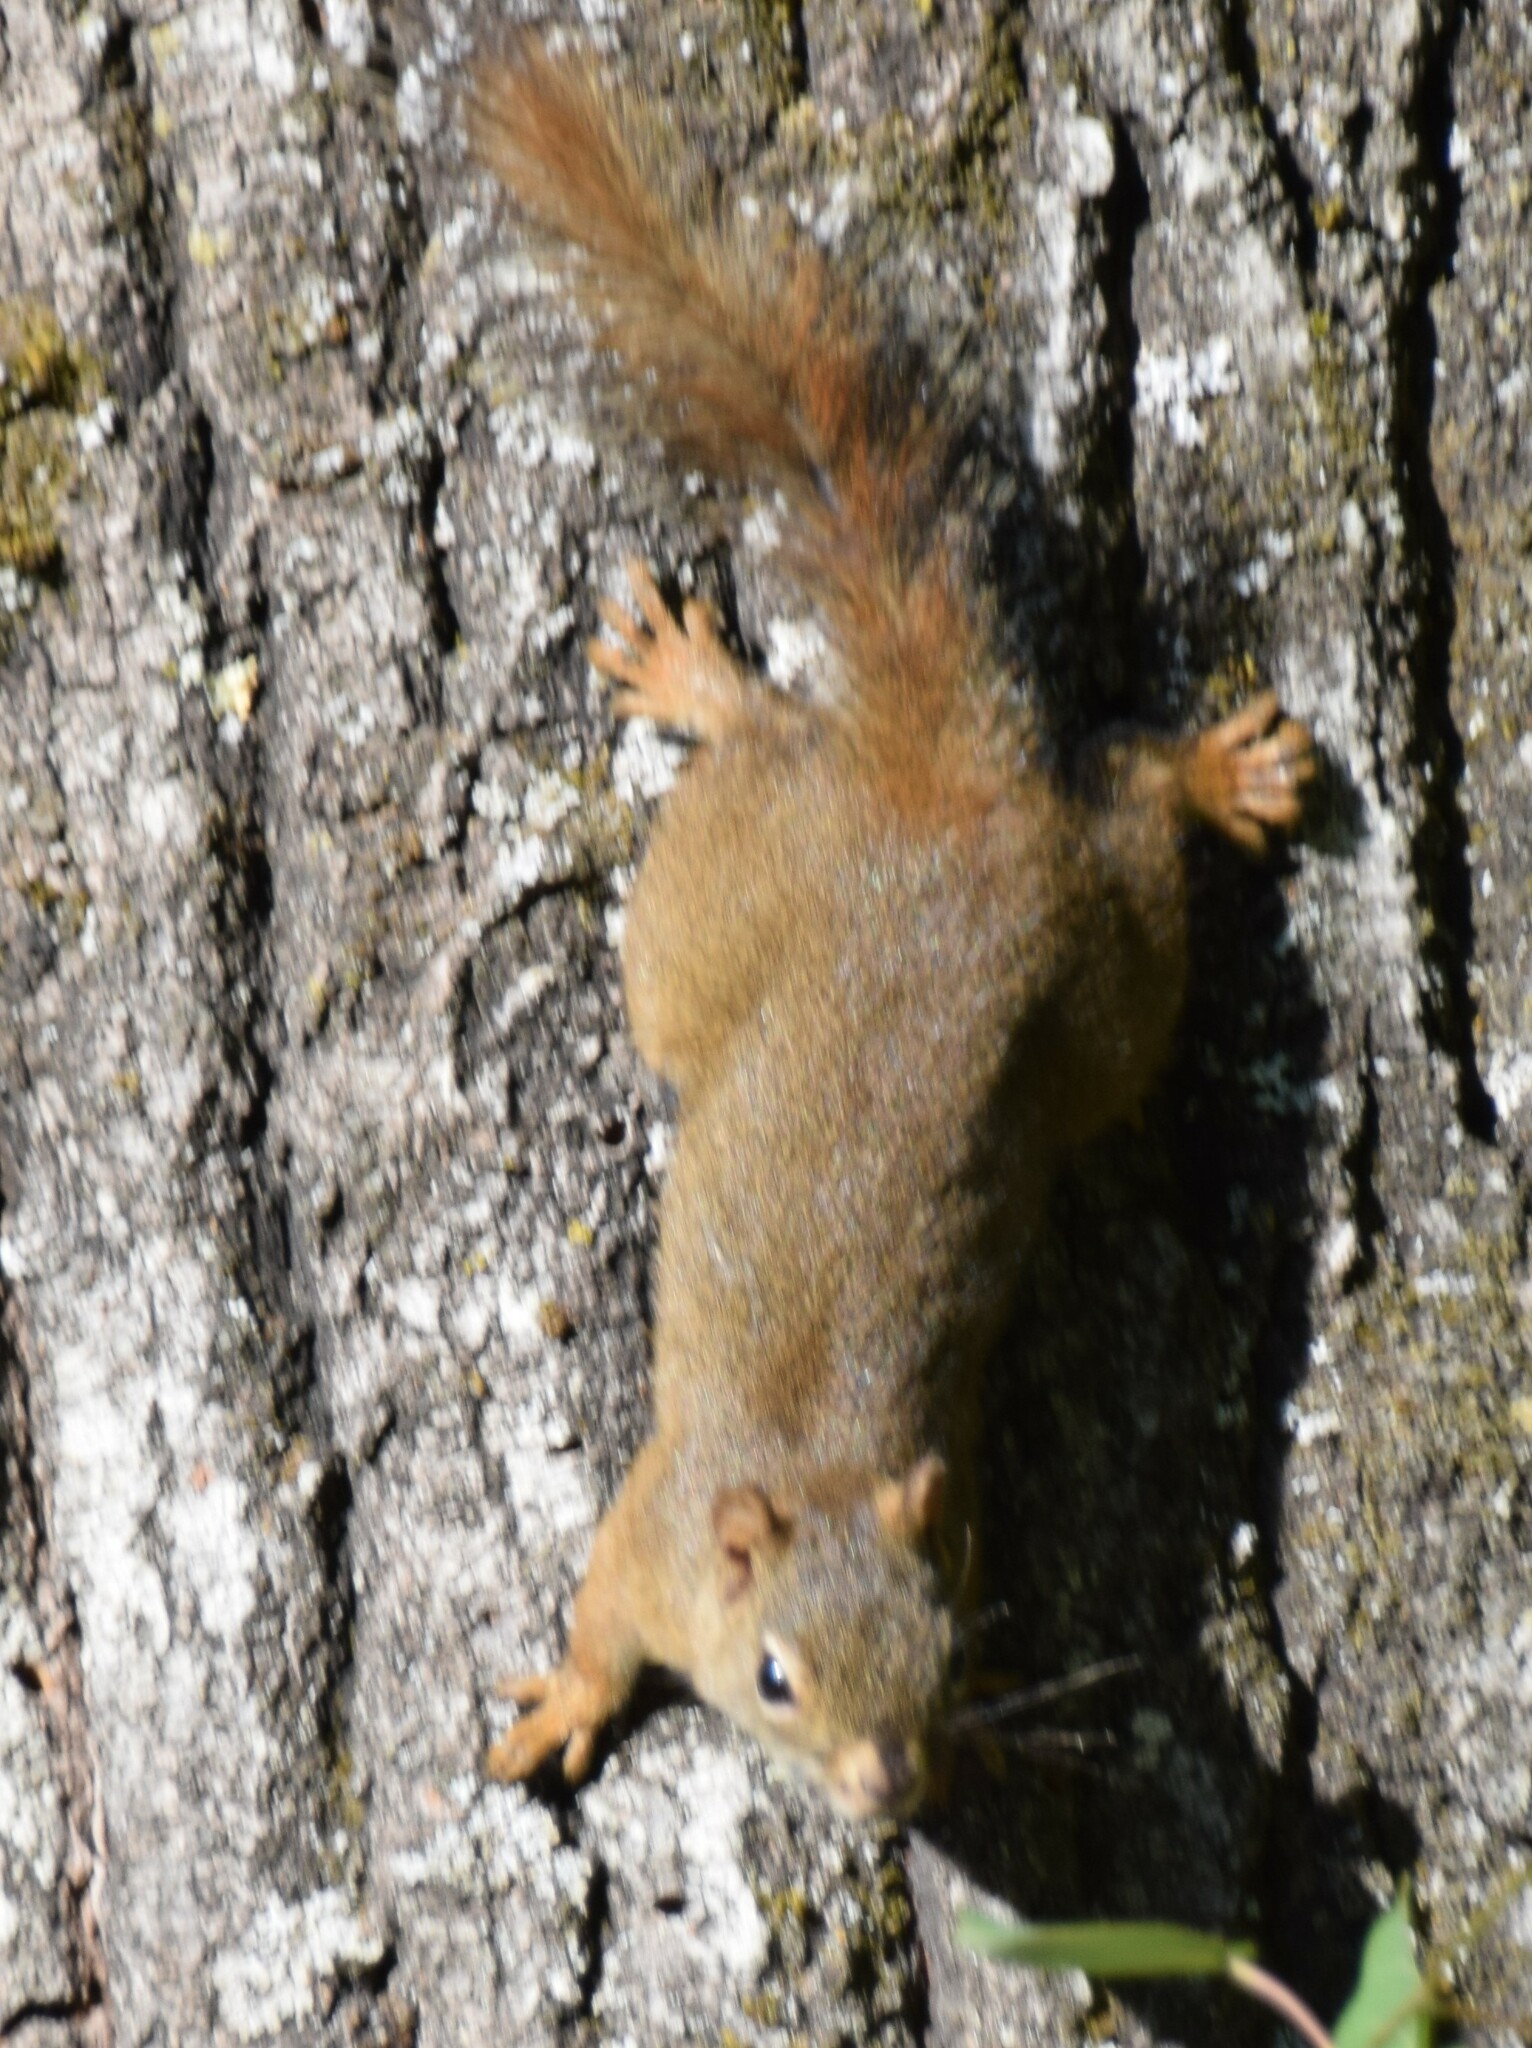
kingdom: Animalia
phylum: Chordata
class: Mammalia
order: Rodentia
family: Sciuridae
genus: Tamiasciurus
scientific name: Tamiasciurus hudsonicus
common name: Red squirrel
